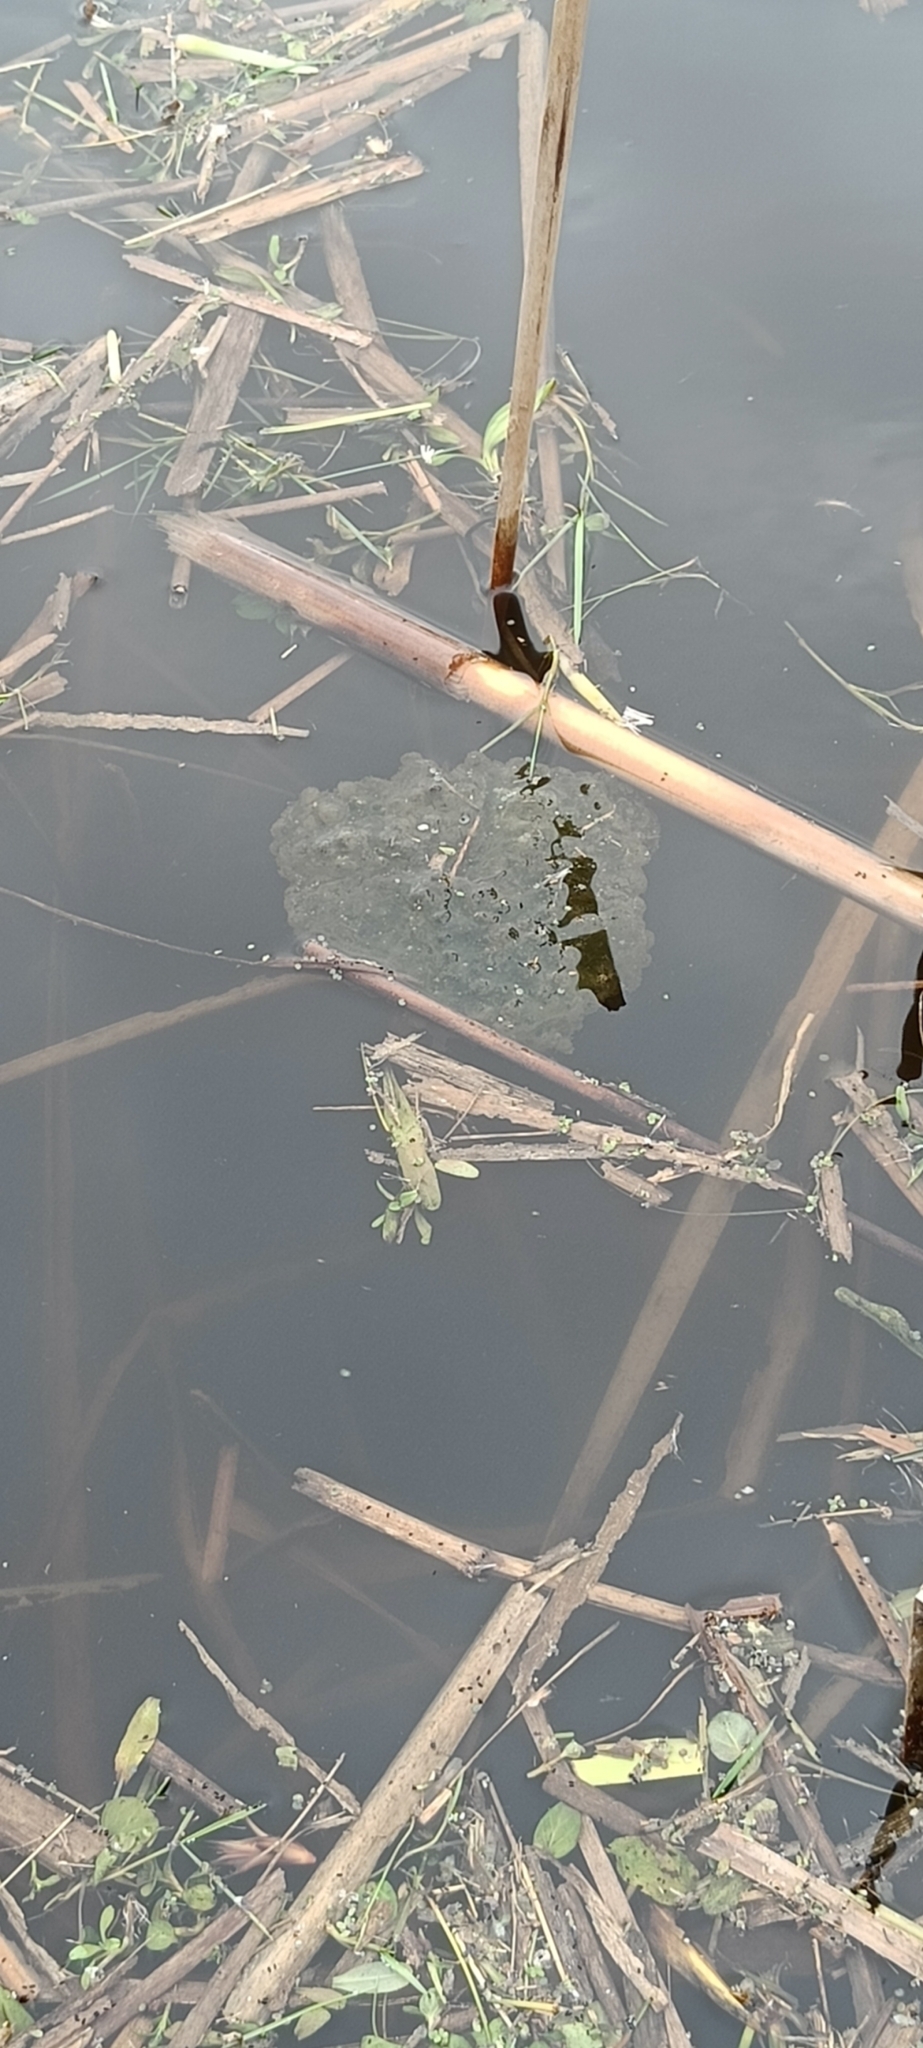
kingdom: Animalia
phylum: Chordata
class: Amphibia
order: Anura
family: Ranidae
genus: Rana
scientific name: Rana dalmatina
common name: Agile frog
